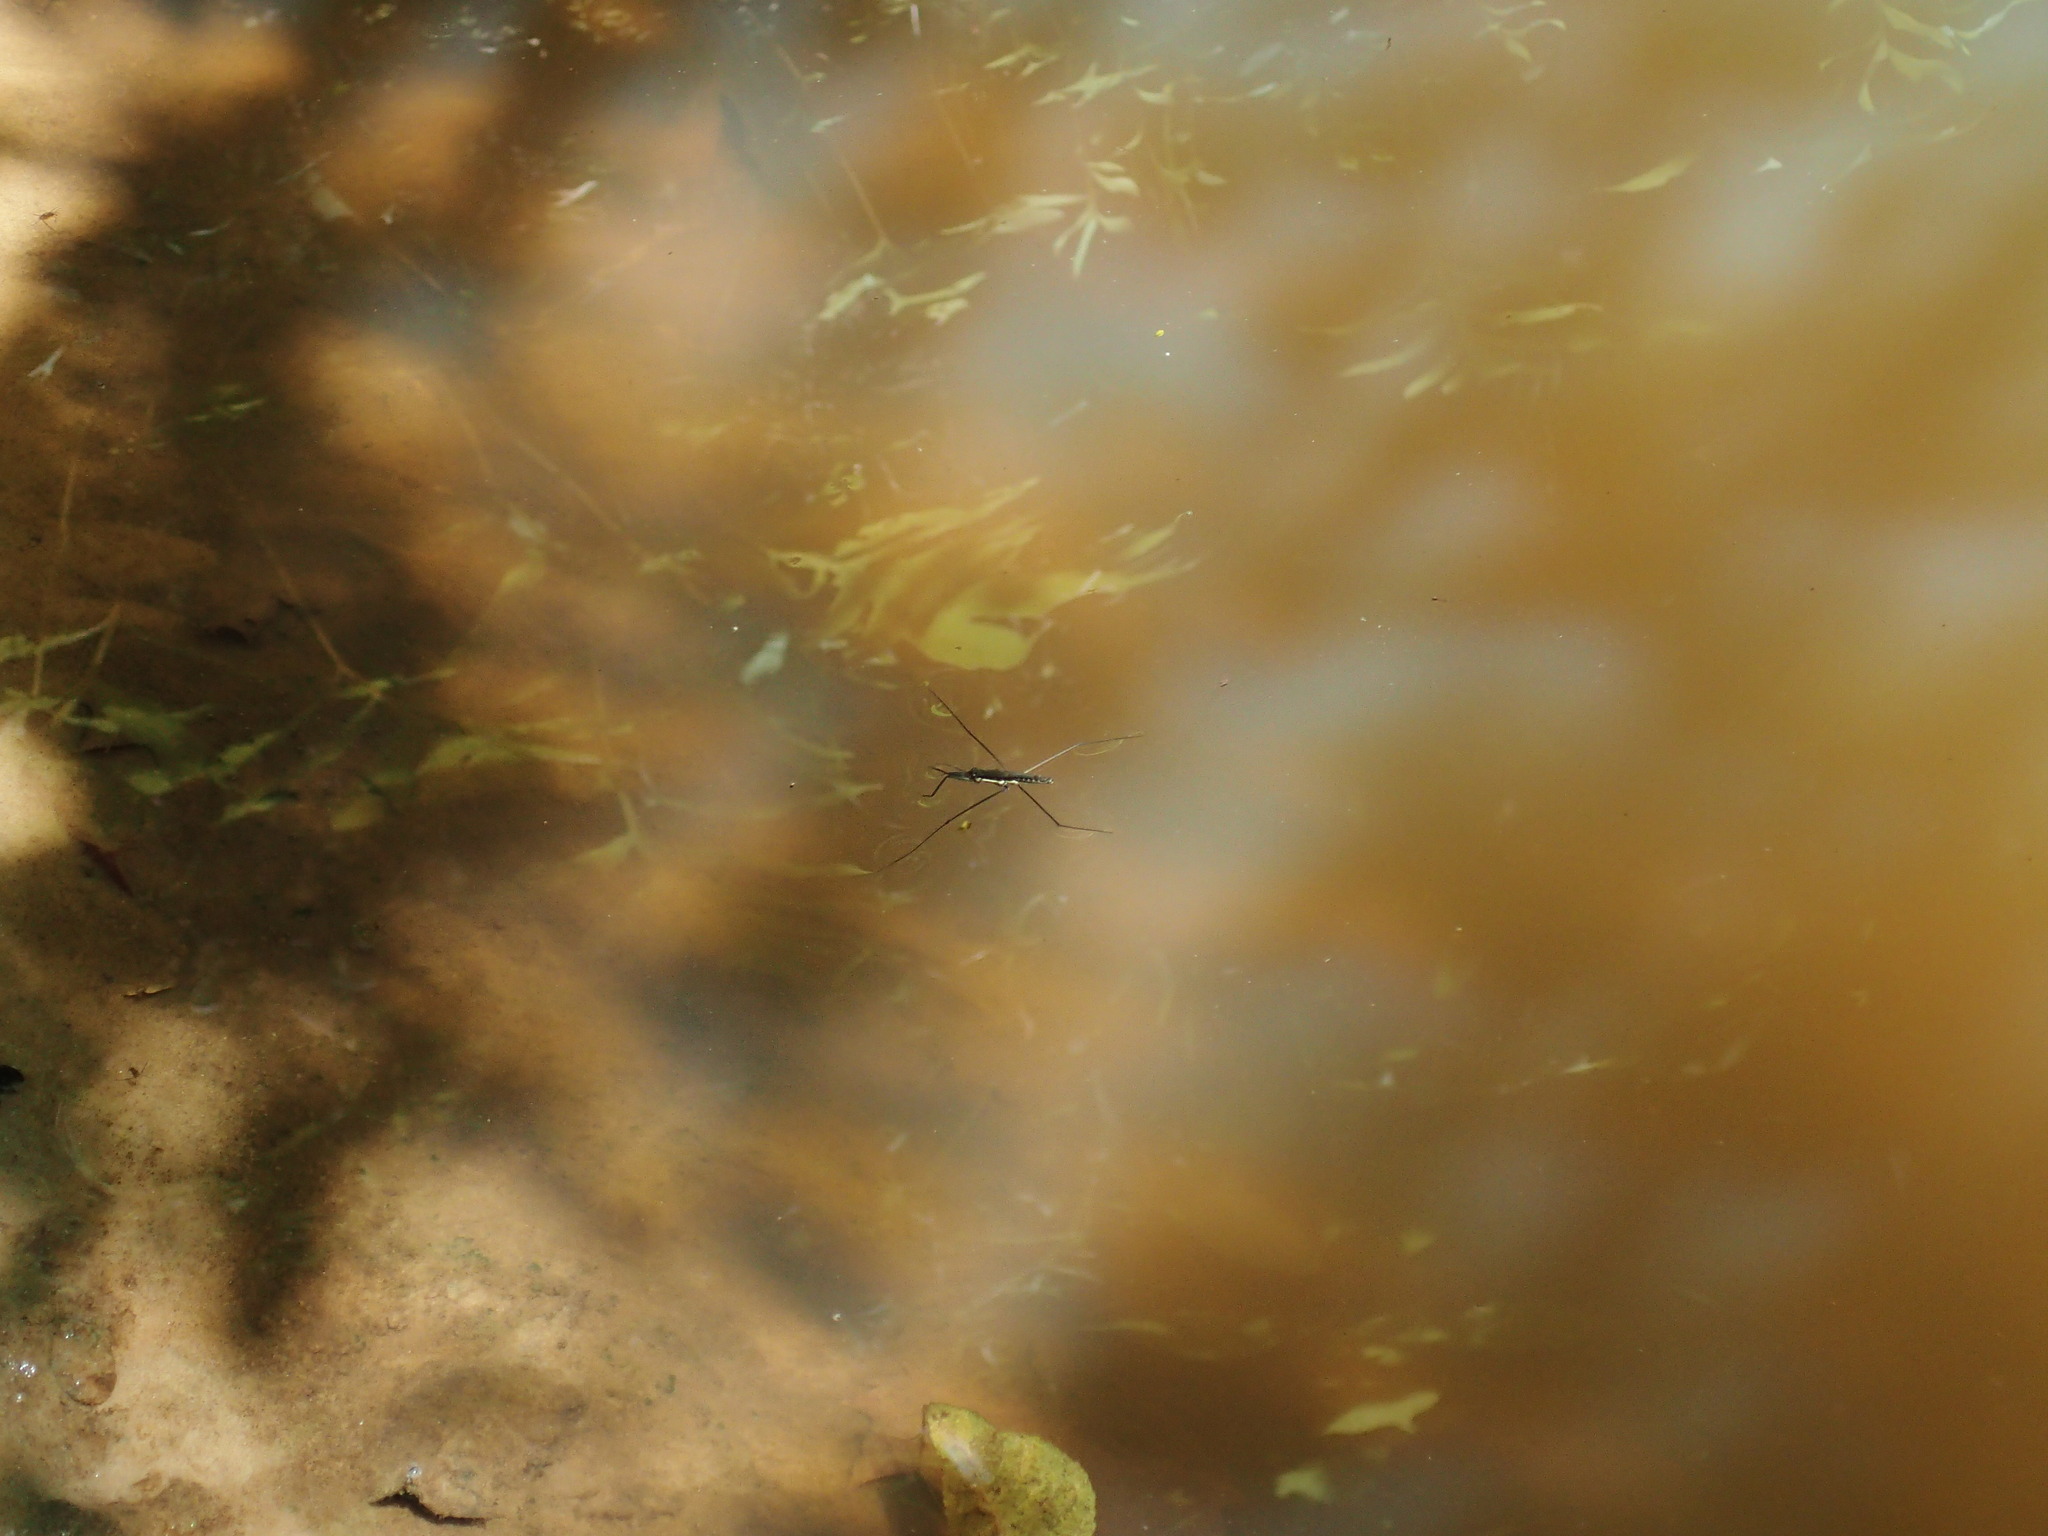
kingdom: Animalia
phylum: Arthropoda
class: Insecta
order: Hemiptera
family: Gerridae
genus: Aquarius
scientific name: Aquarius
